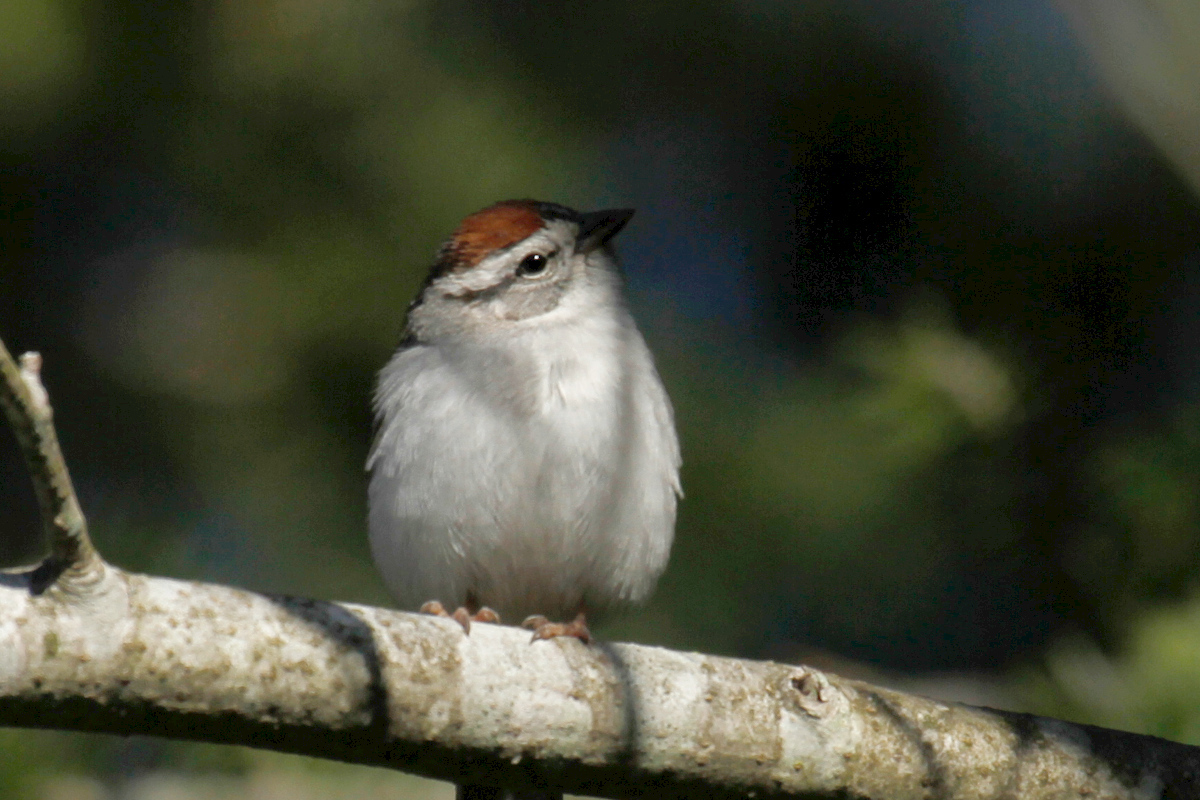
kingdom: Animalia
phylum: Chordata
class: Aves
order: Passeriformes
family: Passerellidae
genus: Spizella
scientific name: Spizella passerina
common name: Chipping sparrow
